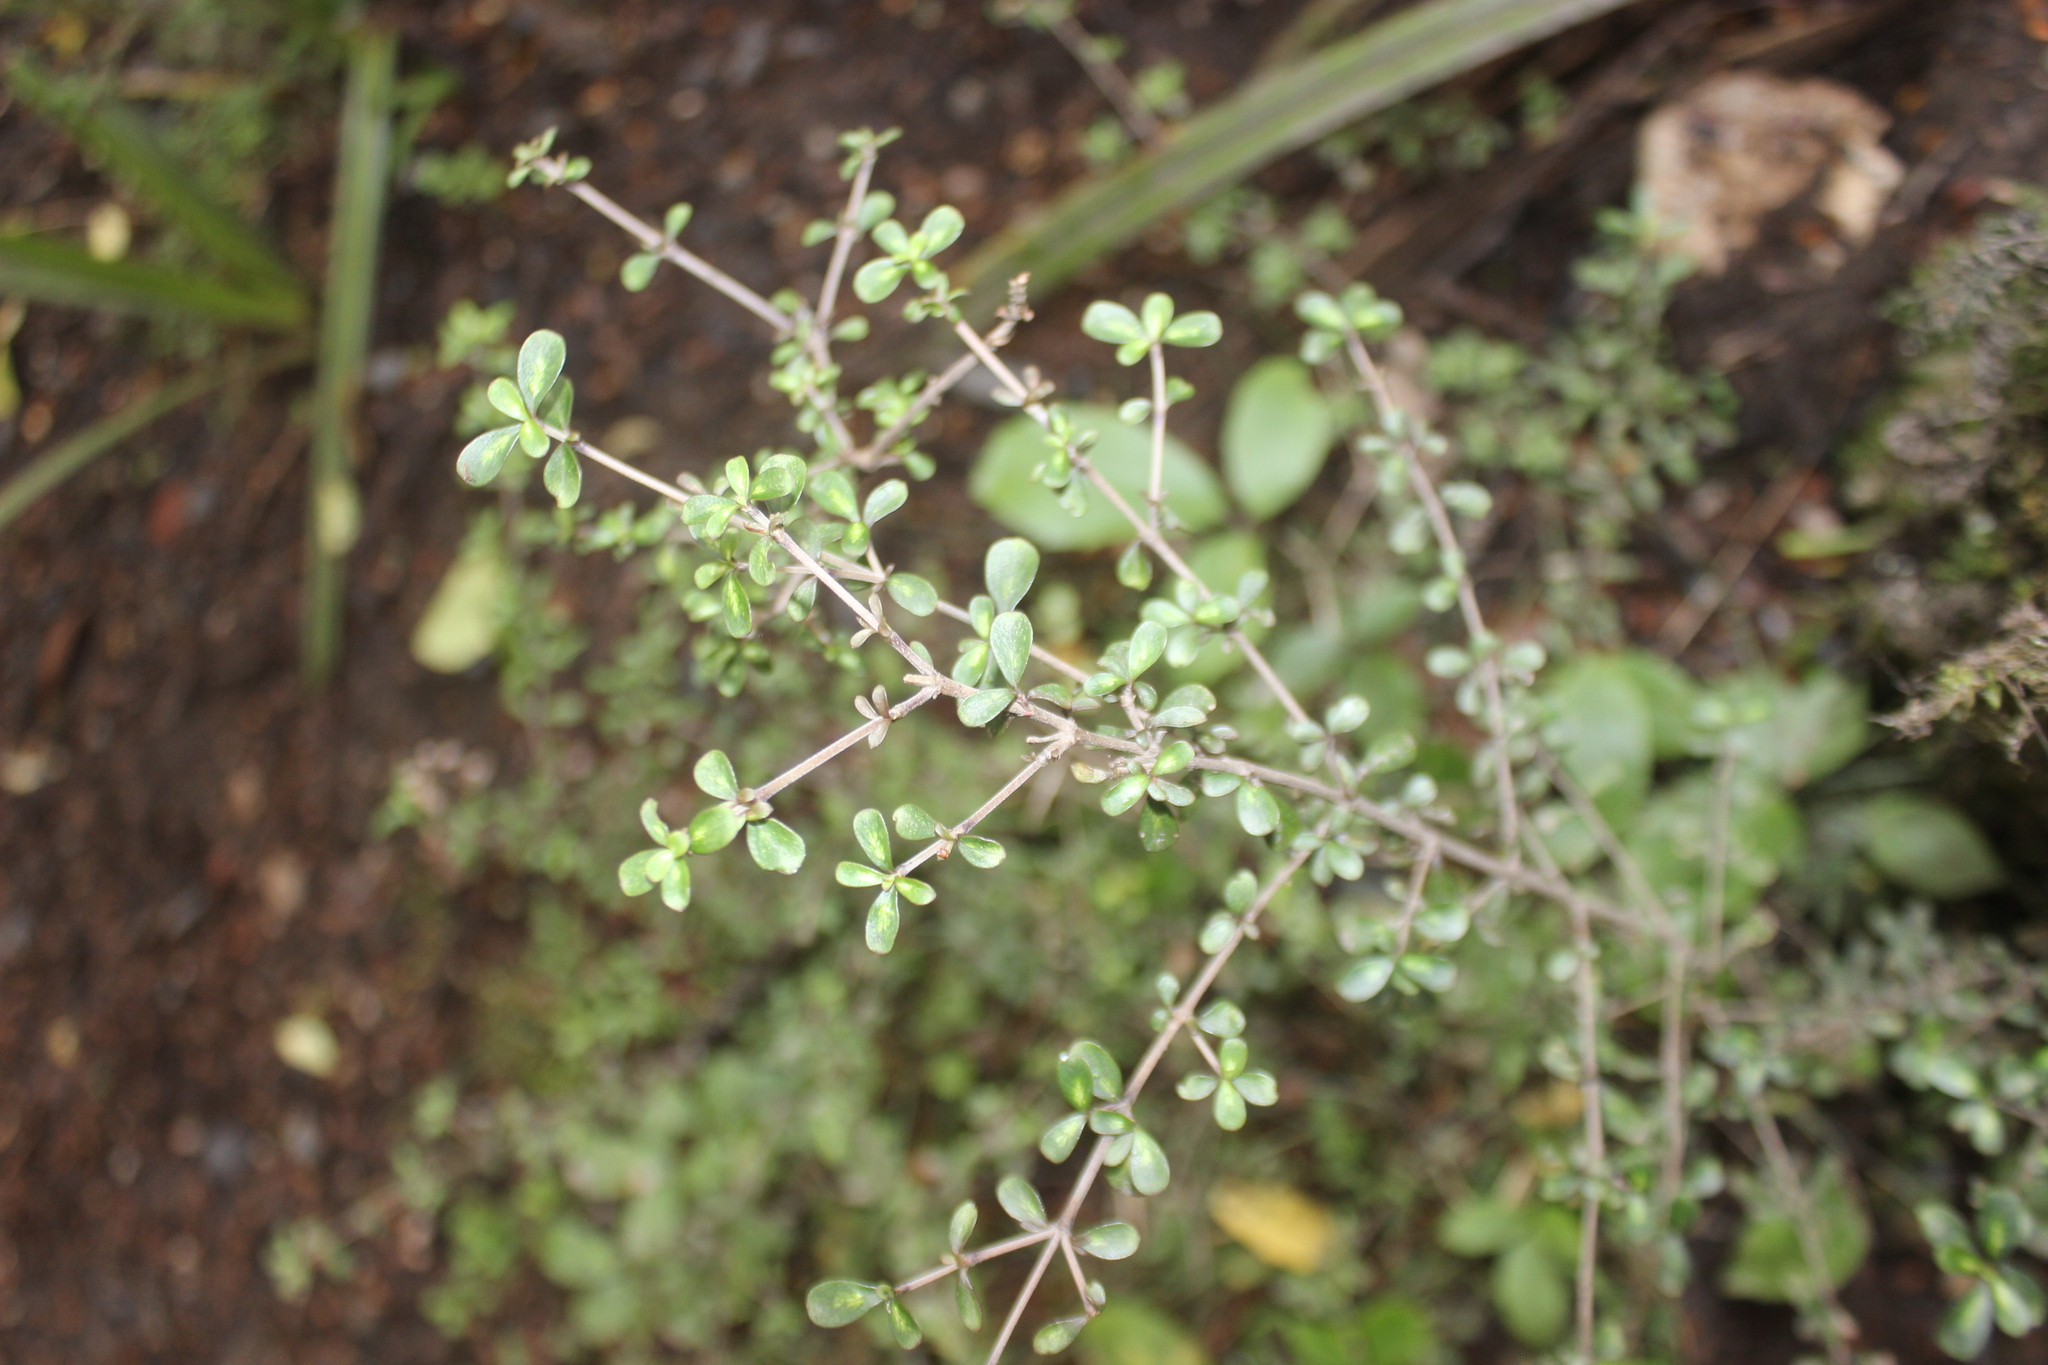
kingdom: Plantae
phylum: Tracheophyta
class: Magnoliopsida
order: Gentianales
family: Rubiaceae
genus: Coprosma
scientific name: Coprosma dumosa
